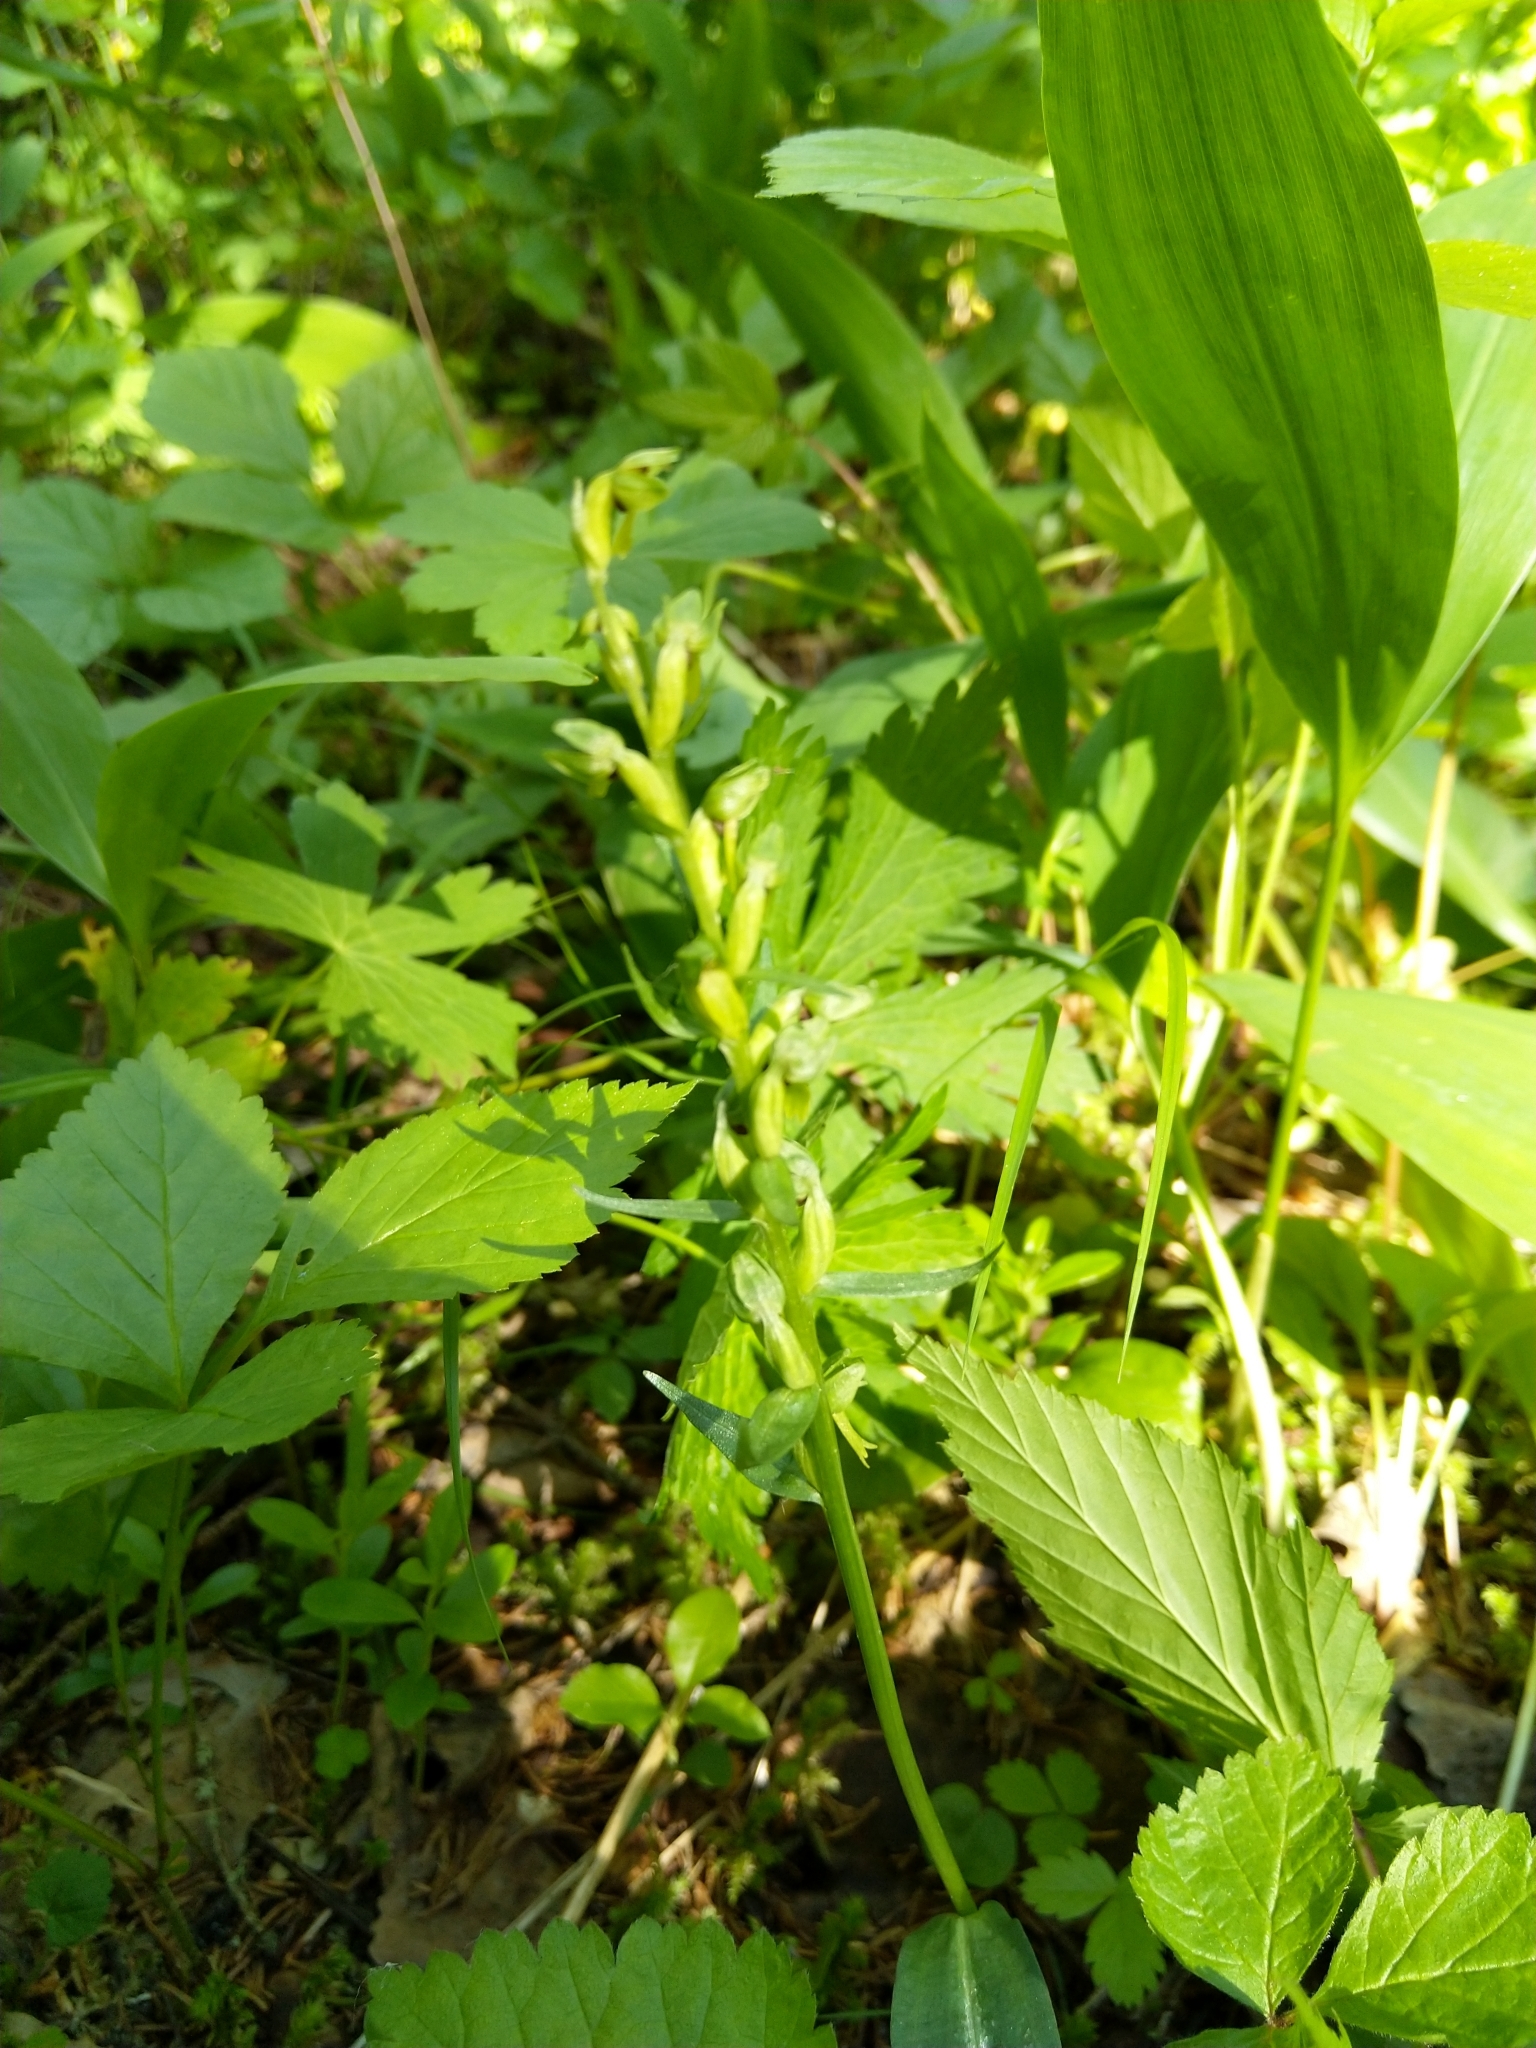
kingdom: Plantae
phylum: Tracheophyta
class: Liliopsida
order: Asparagales
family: Orchidaceae
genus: Dactylorhiza
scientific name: Dactylorhiza viridis
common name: Longbract frog orchid
